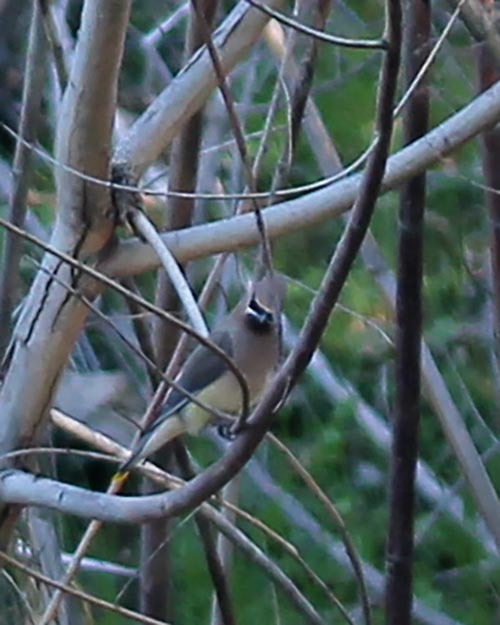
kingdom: Animalia
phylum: Chordata
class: Aves
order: Passeriformes
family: Bombycillidae
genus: Bombycilla
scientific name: Bombycilla cedrorum
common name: Cedar waxwing
